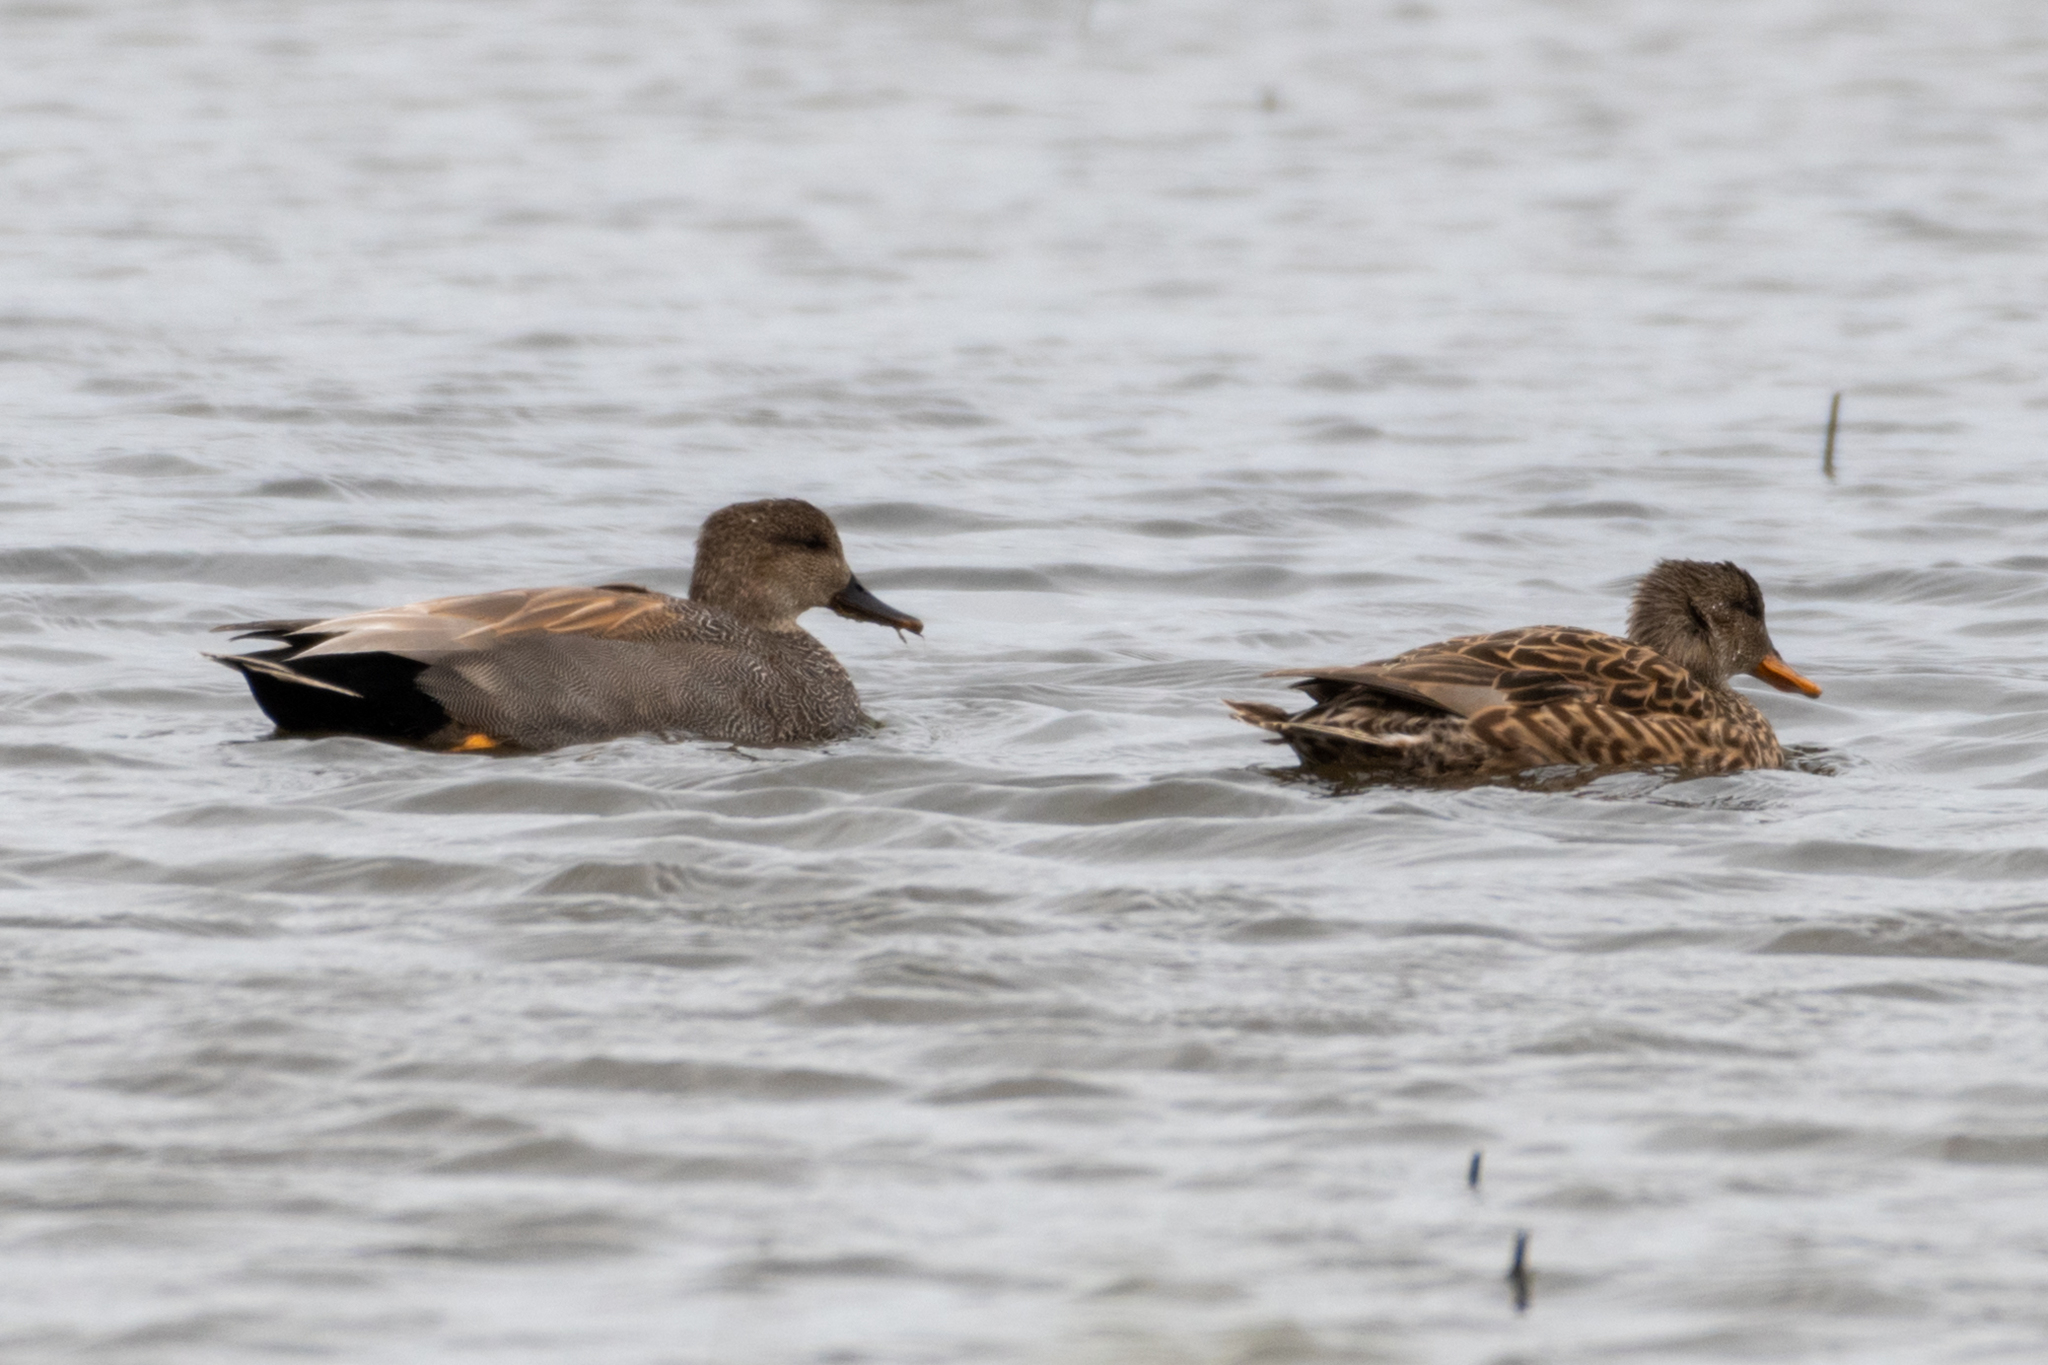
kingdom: Animalia
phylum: Chordata
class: Aves
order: Anseriformes
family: Anatidae
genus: Mareca
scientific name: Mareca strepera
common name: Gadwall
